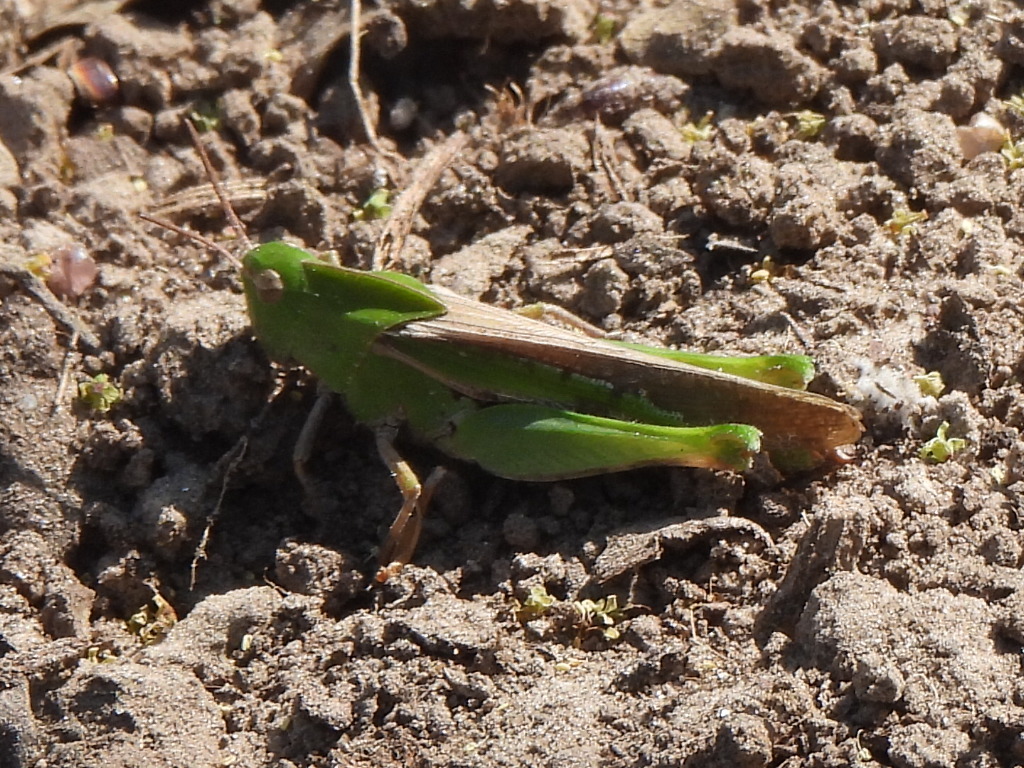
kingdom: Animalia
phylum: Arthropoda
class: Insecta
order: Orthoptera
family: Acrididae
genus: Chortophaga
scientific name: Chortophaga viridifasciata
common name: Green-striped grasshopper
